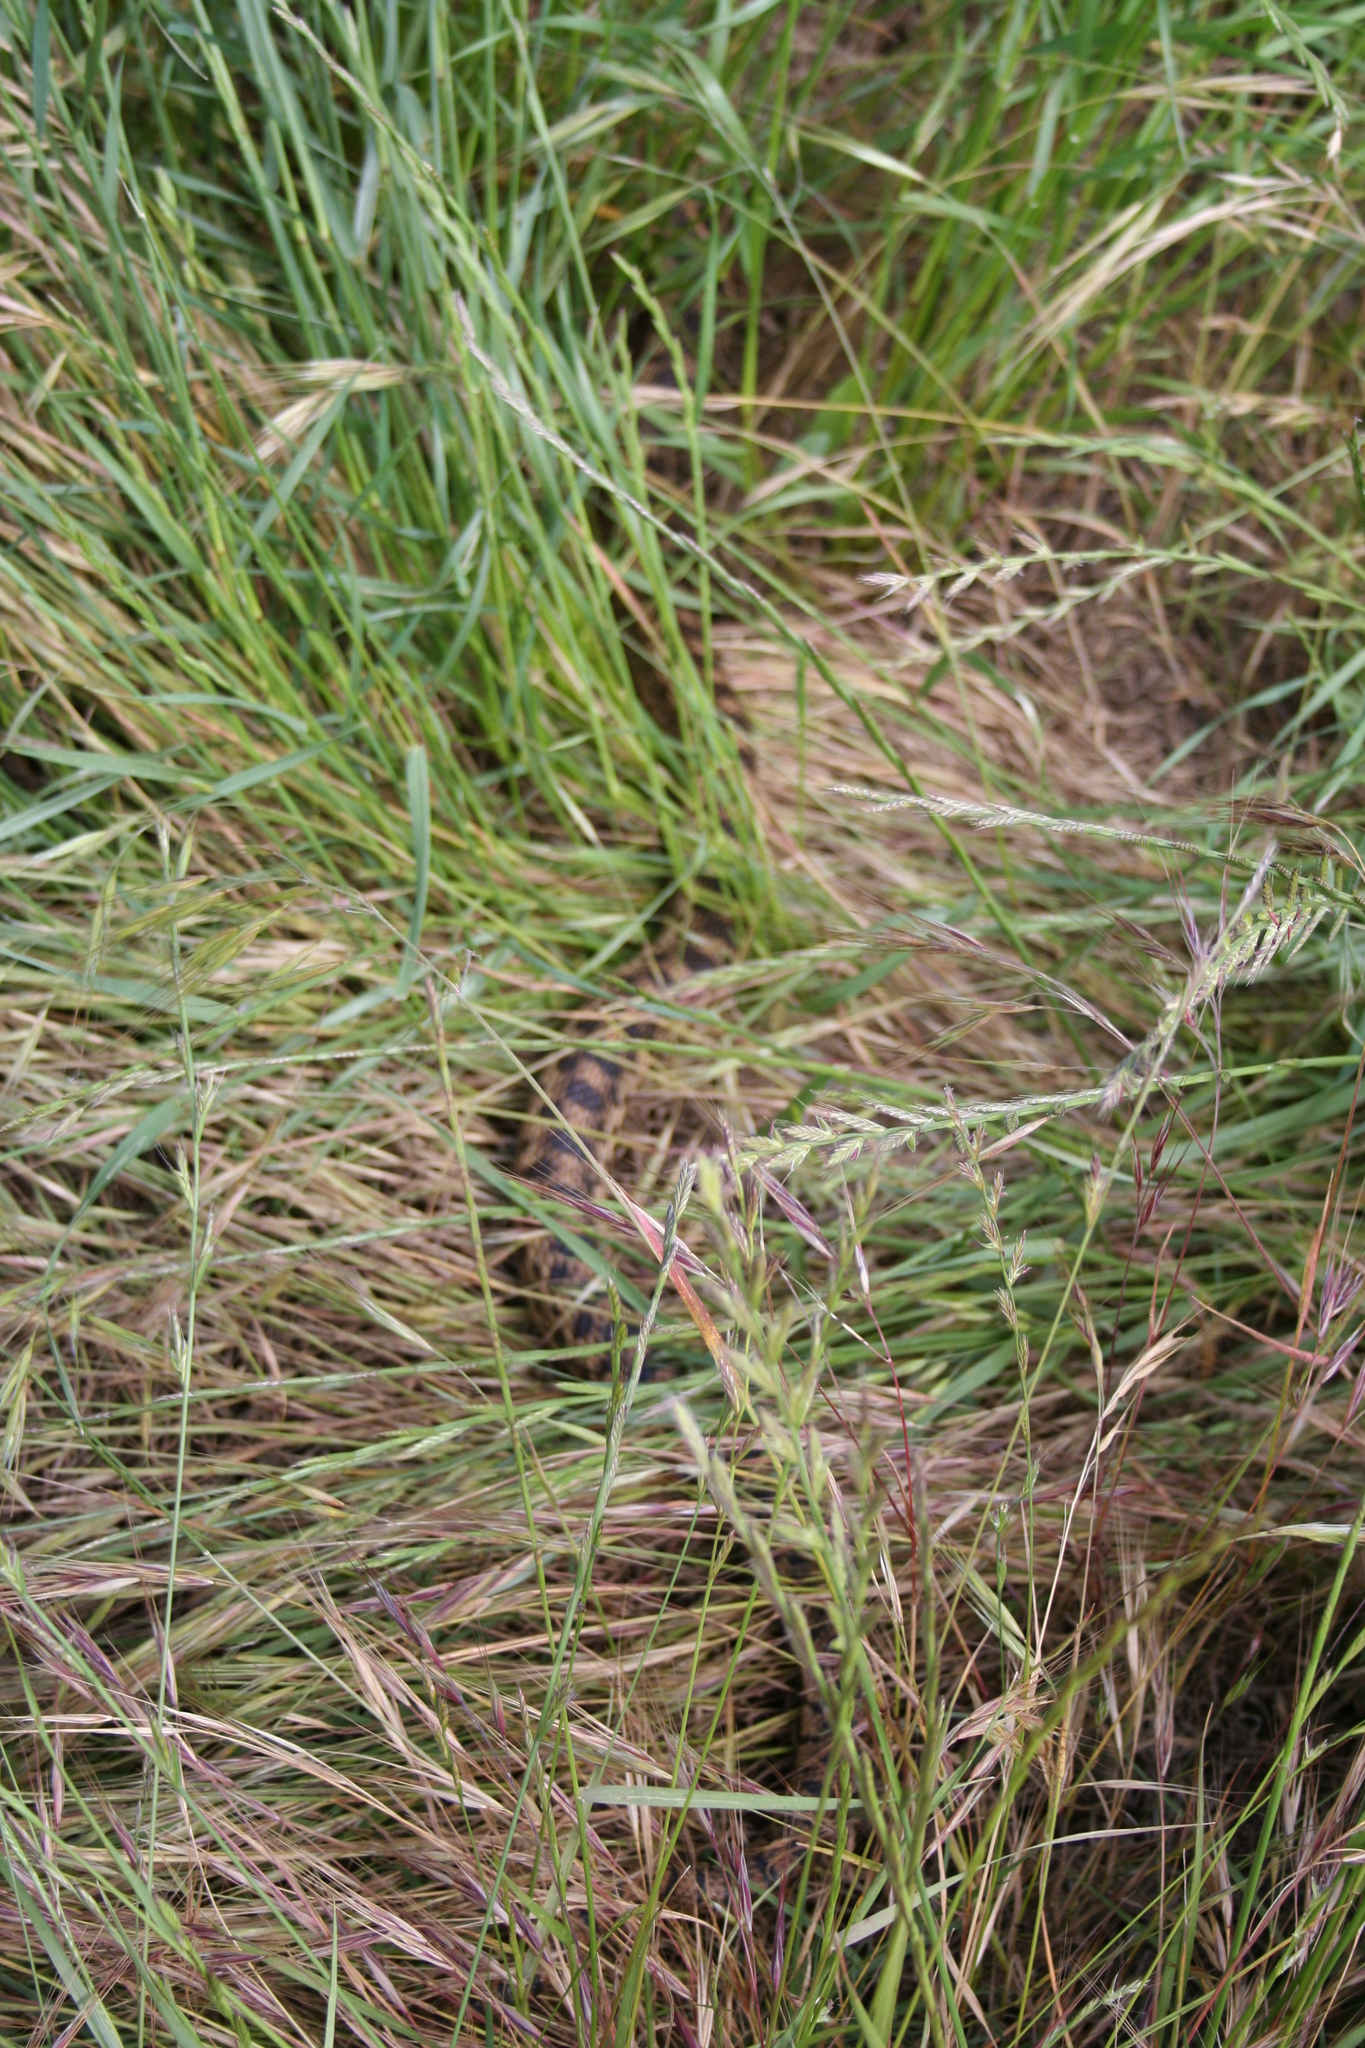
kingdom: Animalia
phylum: Chordata
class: Squamata
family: Colubridae
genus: Pituophis
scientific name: Pituophis catenifer
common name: Gopher snake
